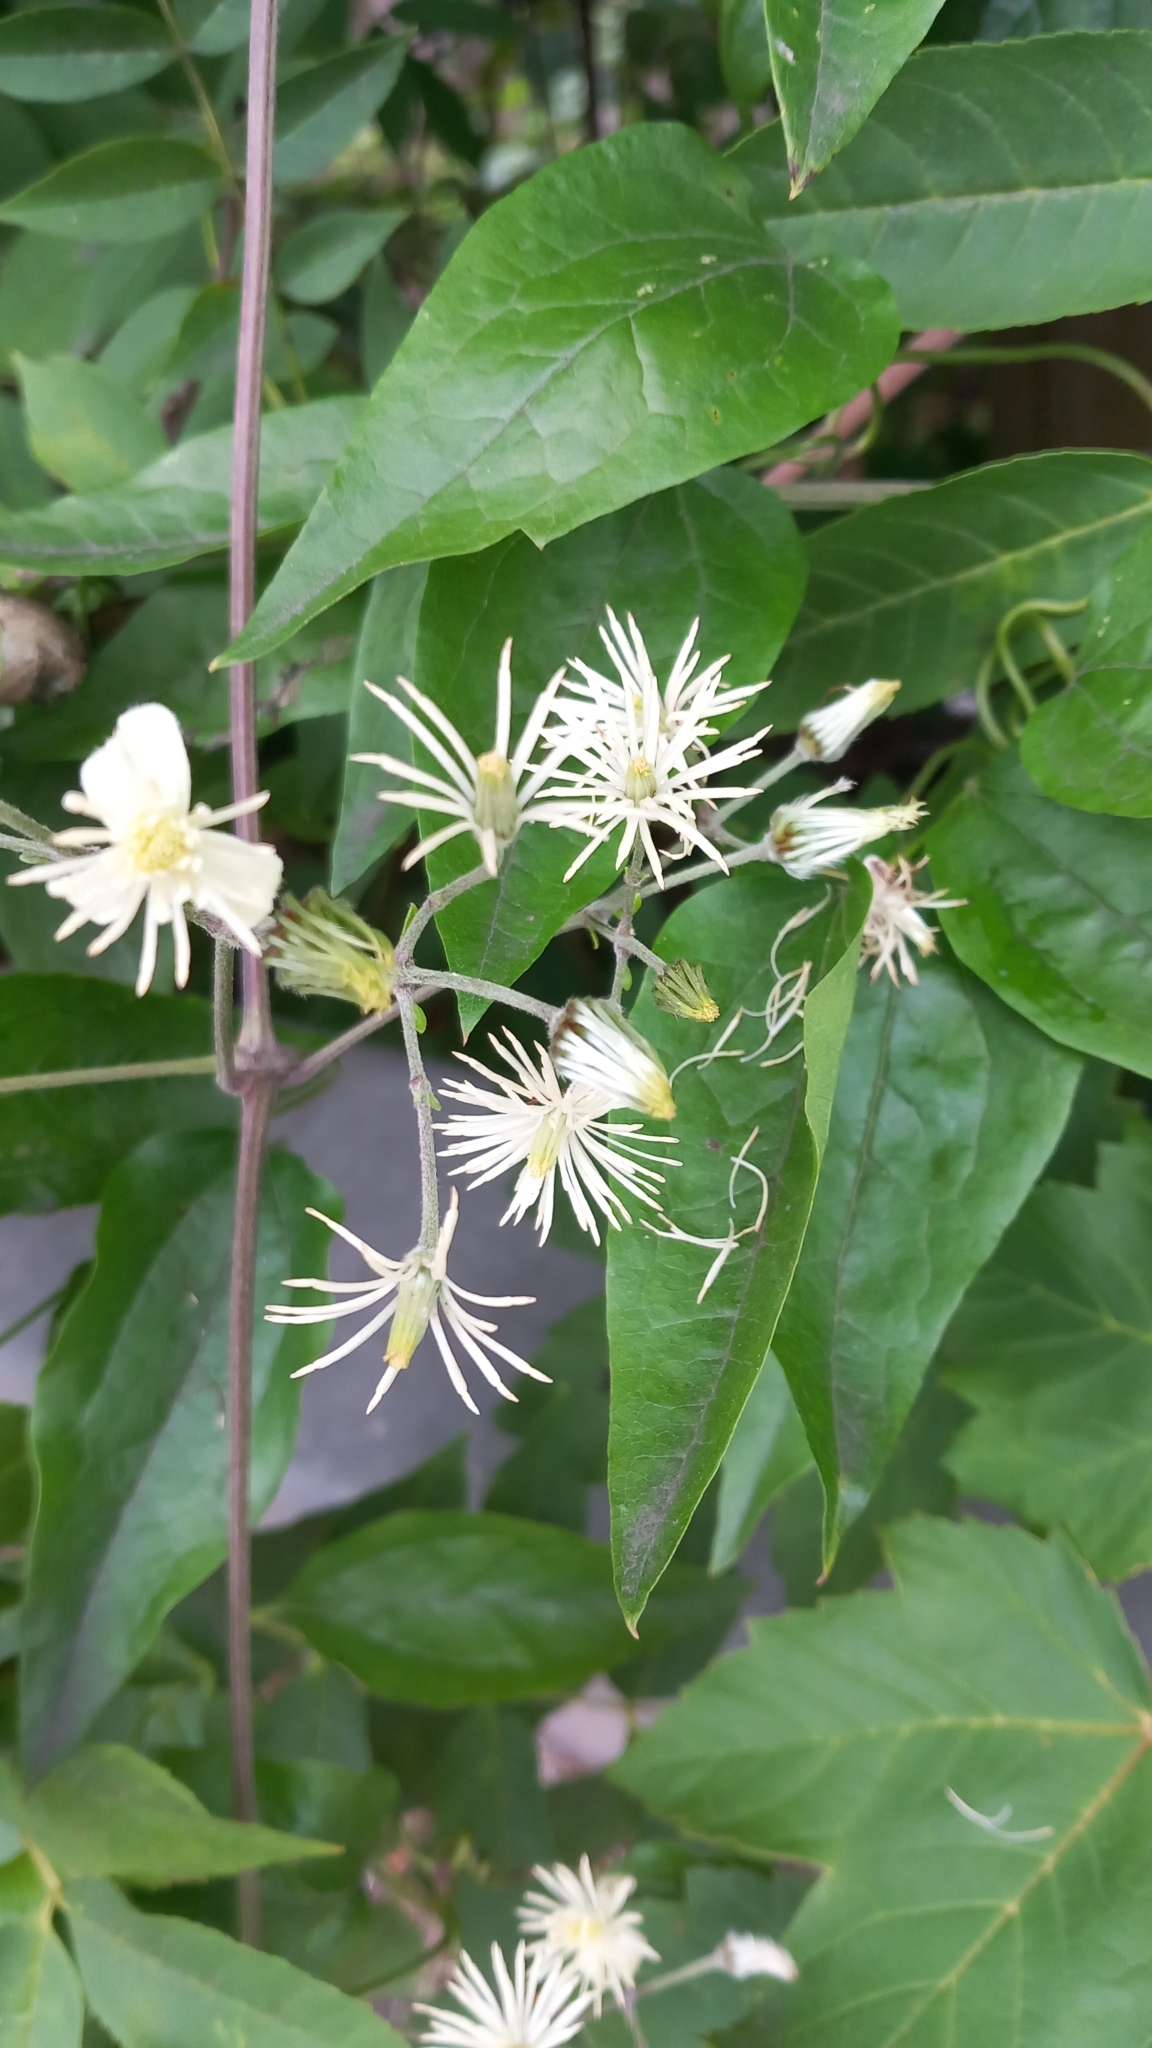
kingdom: Plantae
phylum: Tracheophyta
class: Magnoliopsida
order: Ranunculales
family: Ranunculaceae
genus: Clematis
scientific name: Clematis vitalba
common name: Evergreen clematis
